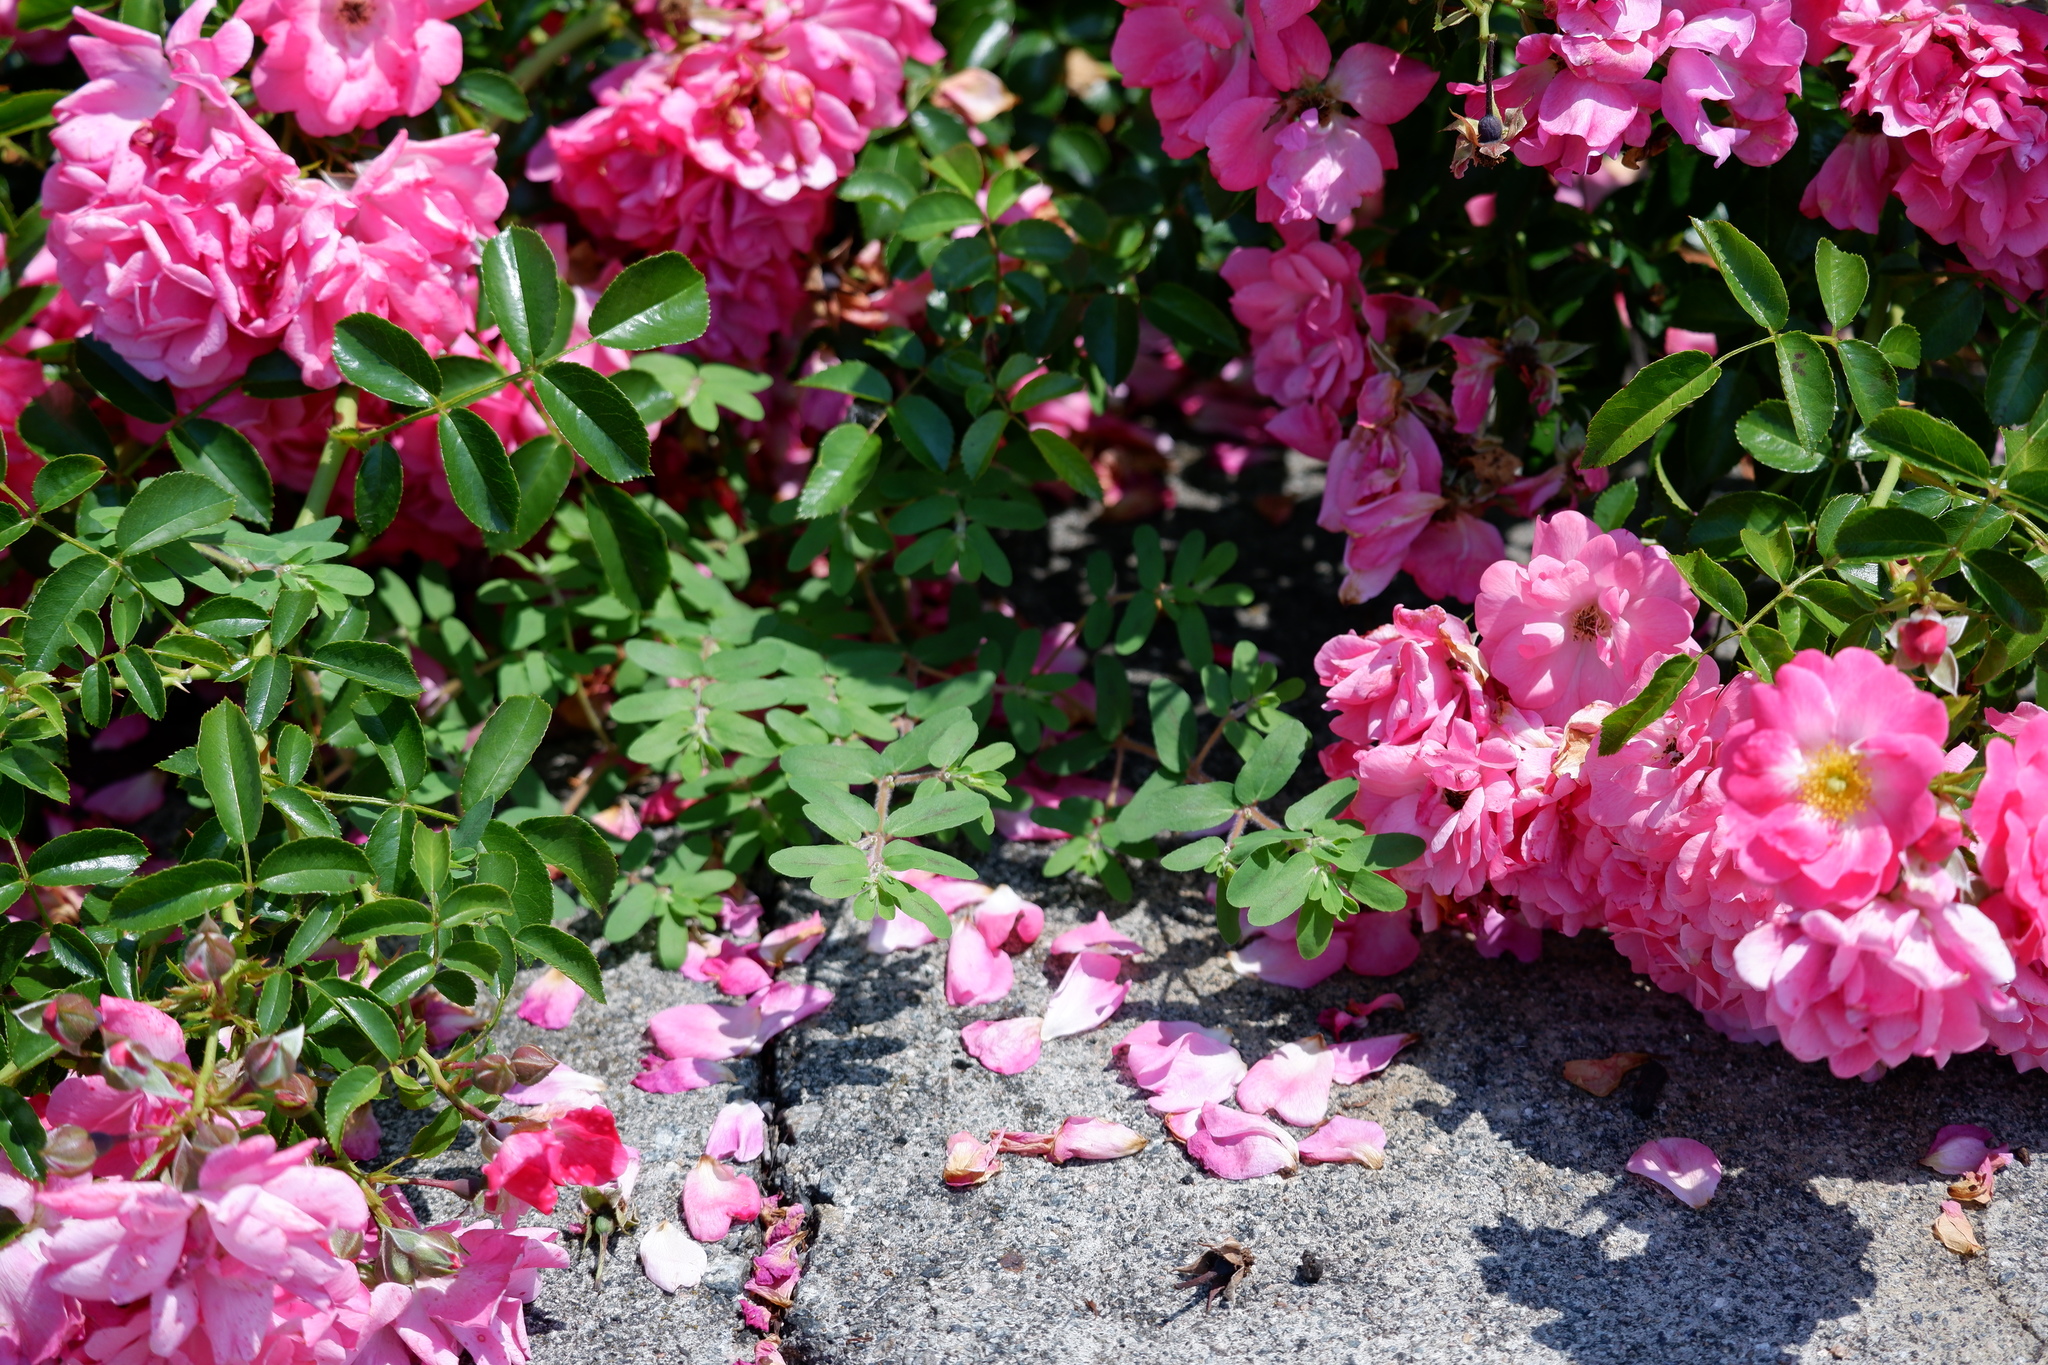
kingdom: Plantae
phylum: Tracheophyta
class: Magnoliopsida
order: Malpighiales
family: Euphorbiaceae
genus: Euphorbia
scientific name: Euphorbia maculata
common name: Spotted spurge
